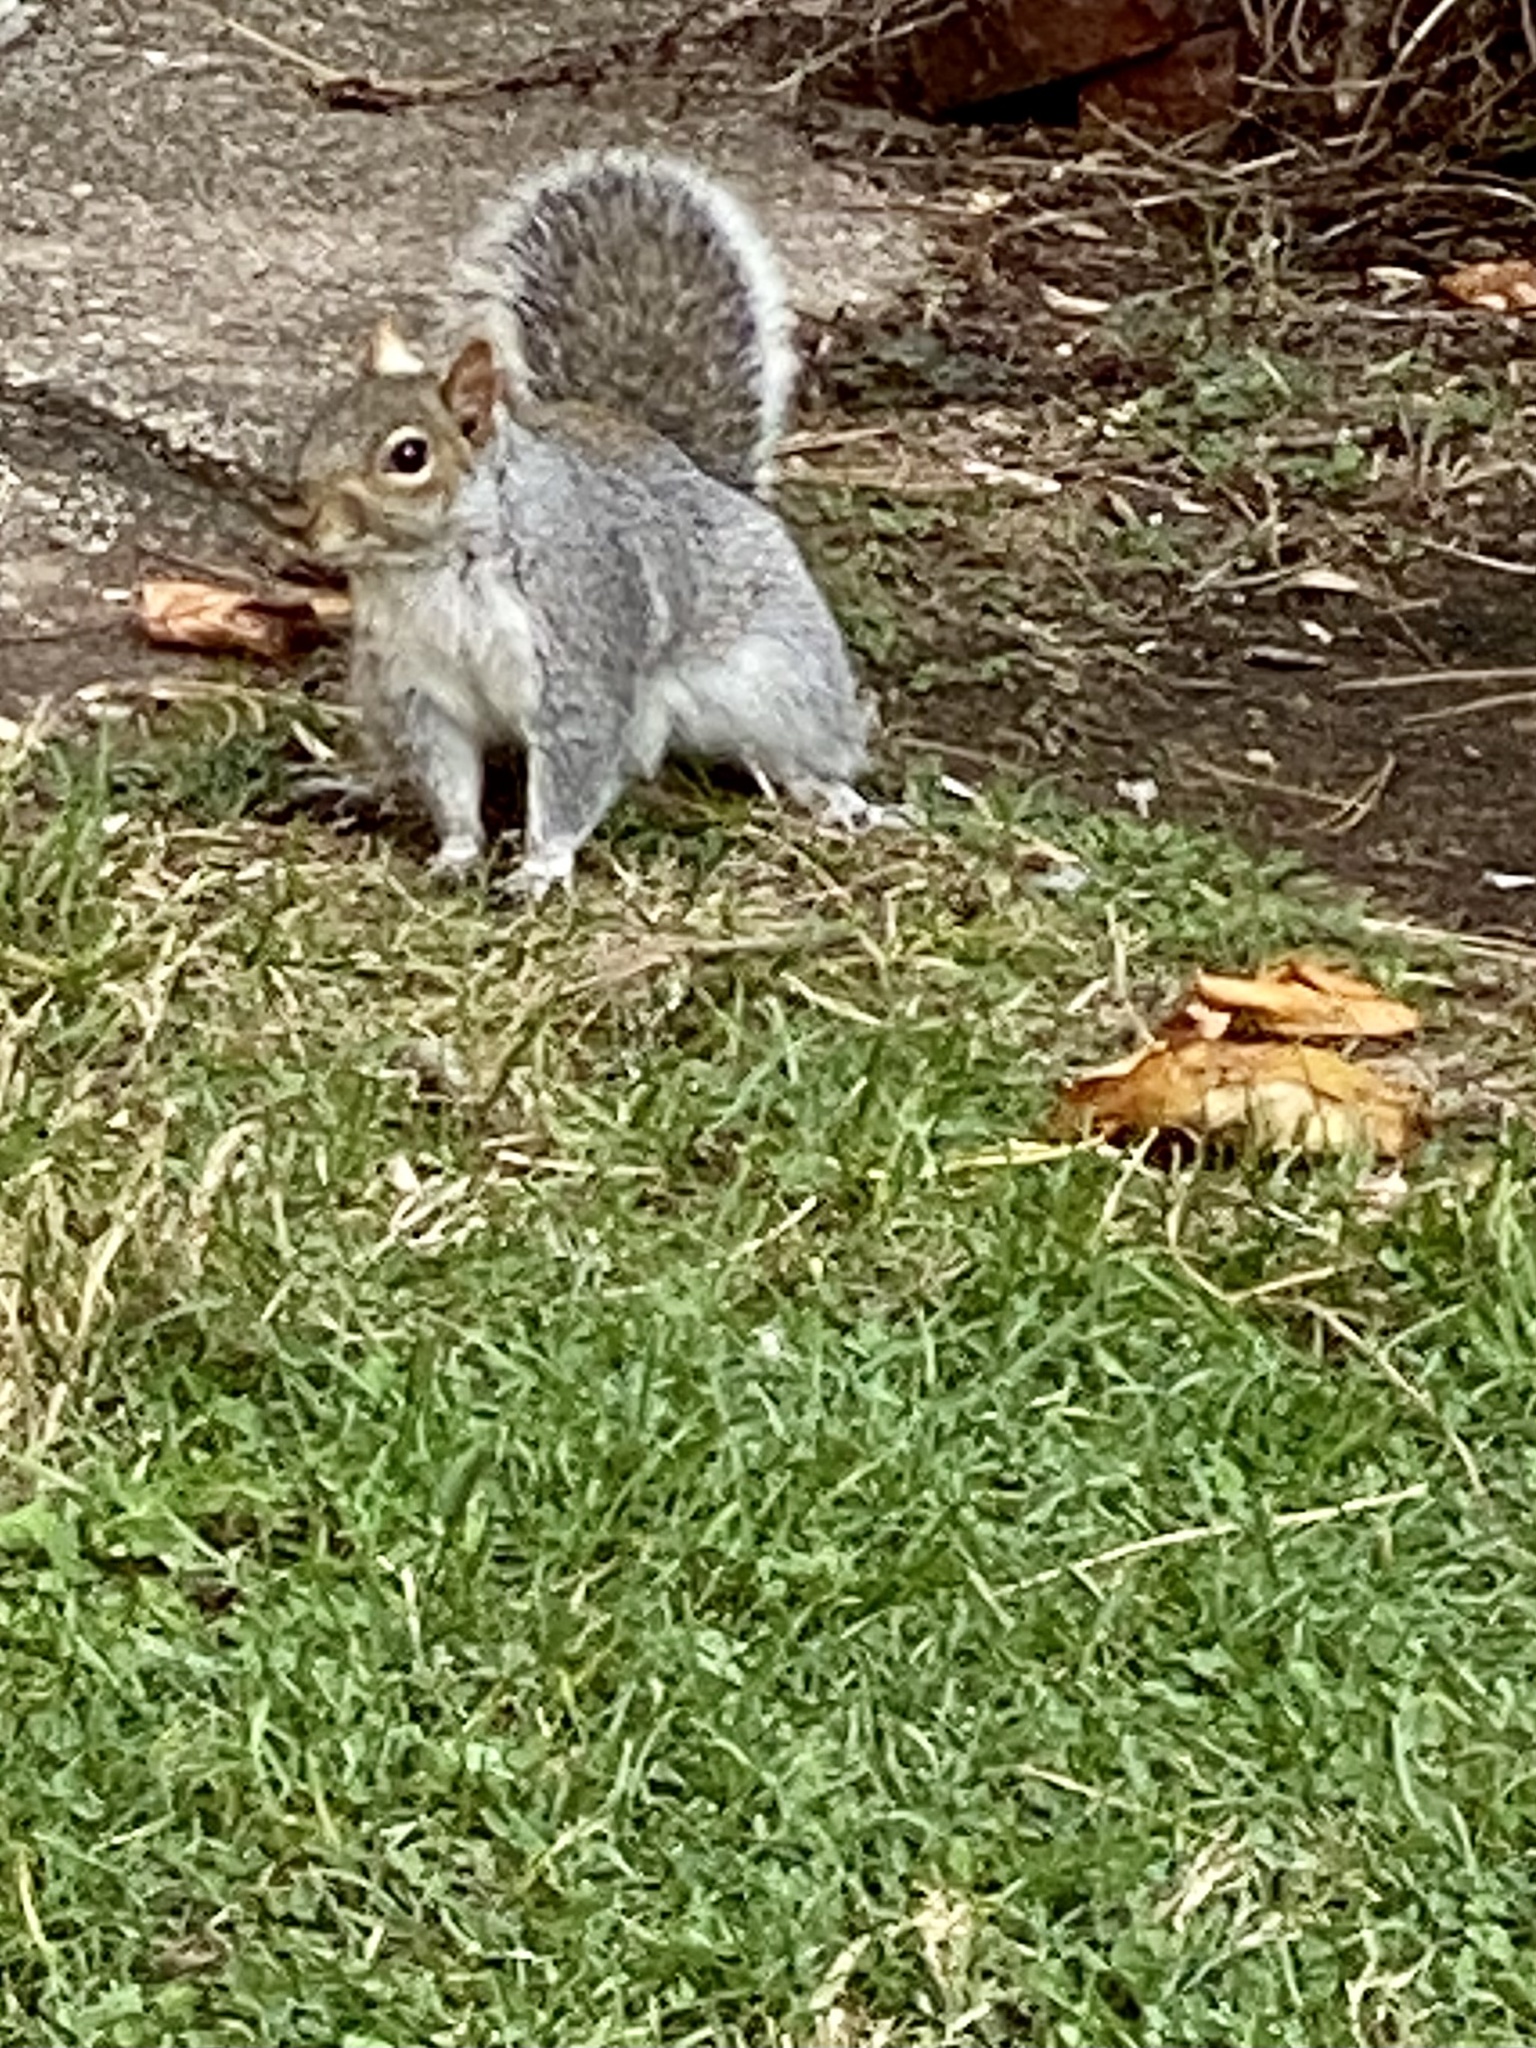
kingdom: Animalia
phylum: Chordata
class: Mammalia
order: Rodentia
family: Sciuridae
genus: Sciurus
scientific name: Sciurus carolinensis
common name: Eastern gray squirrel
